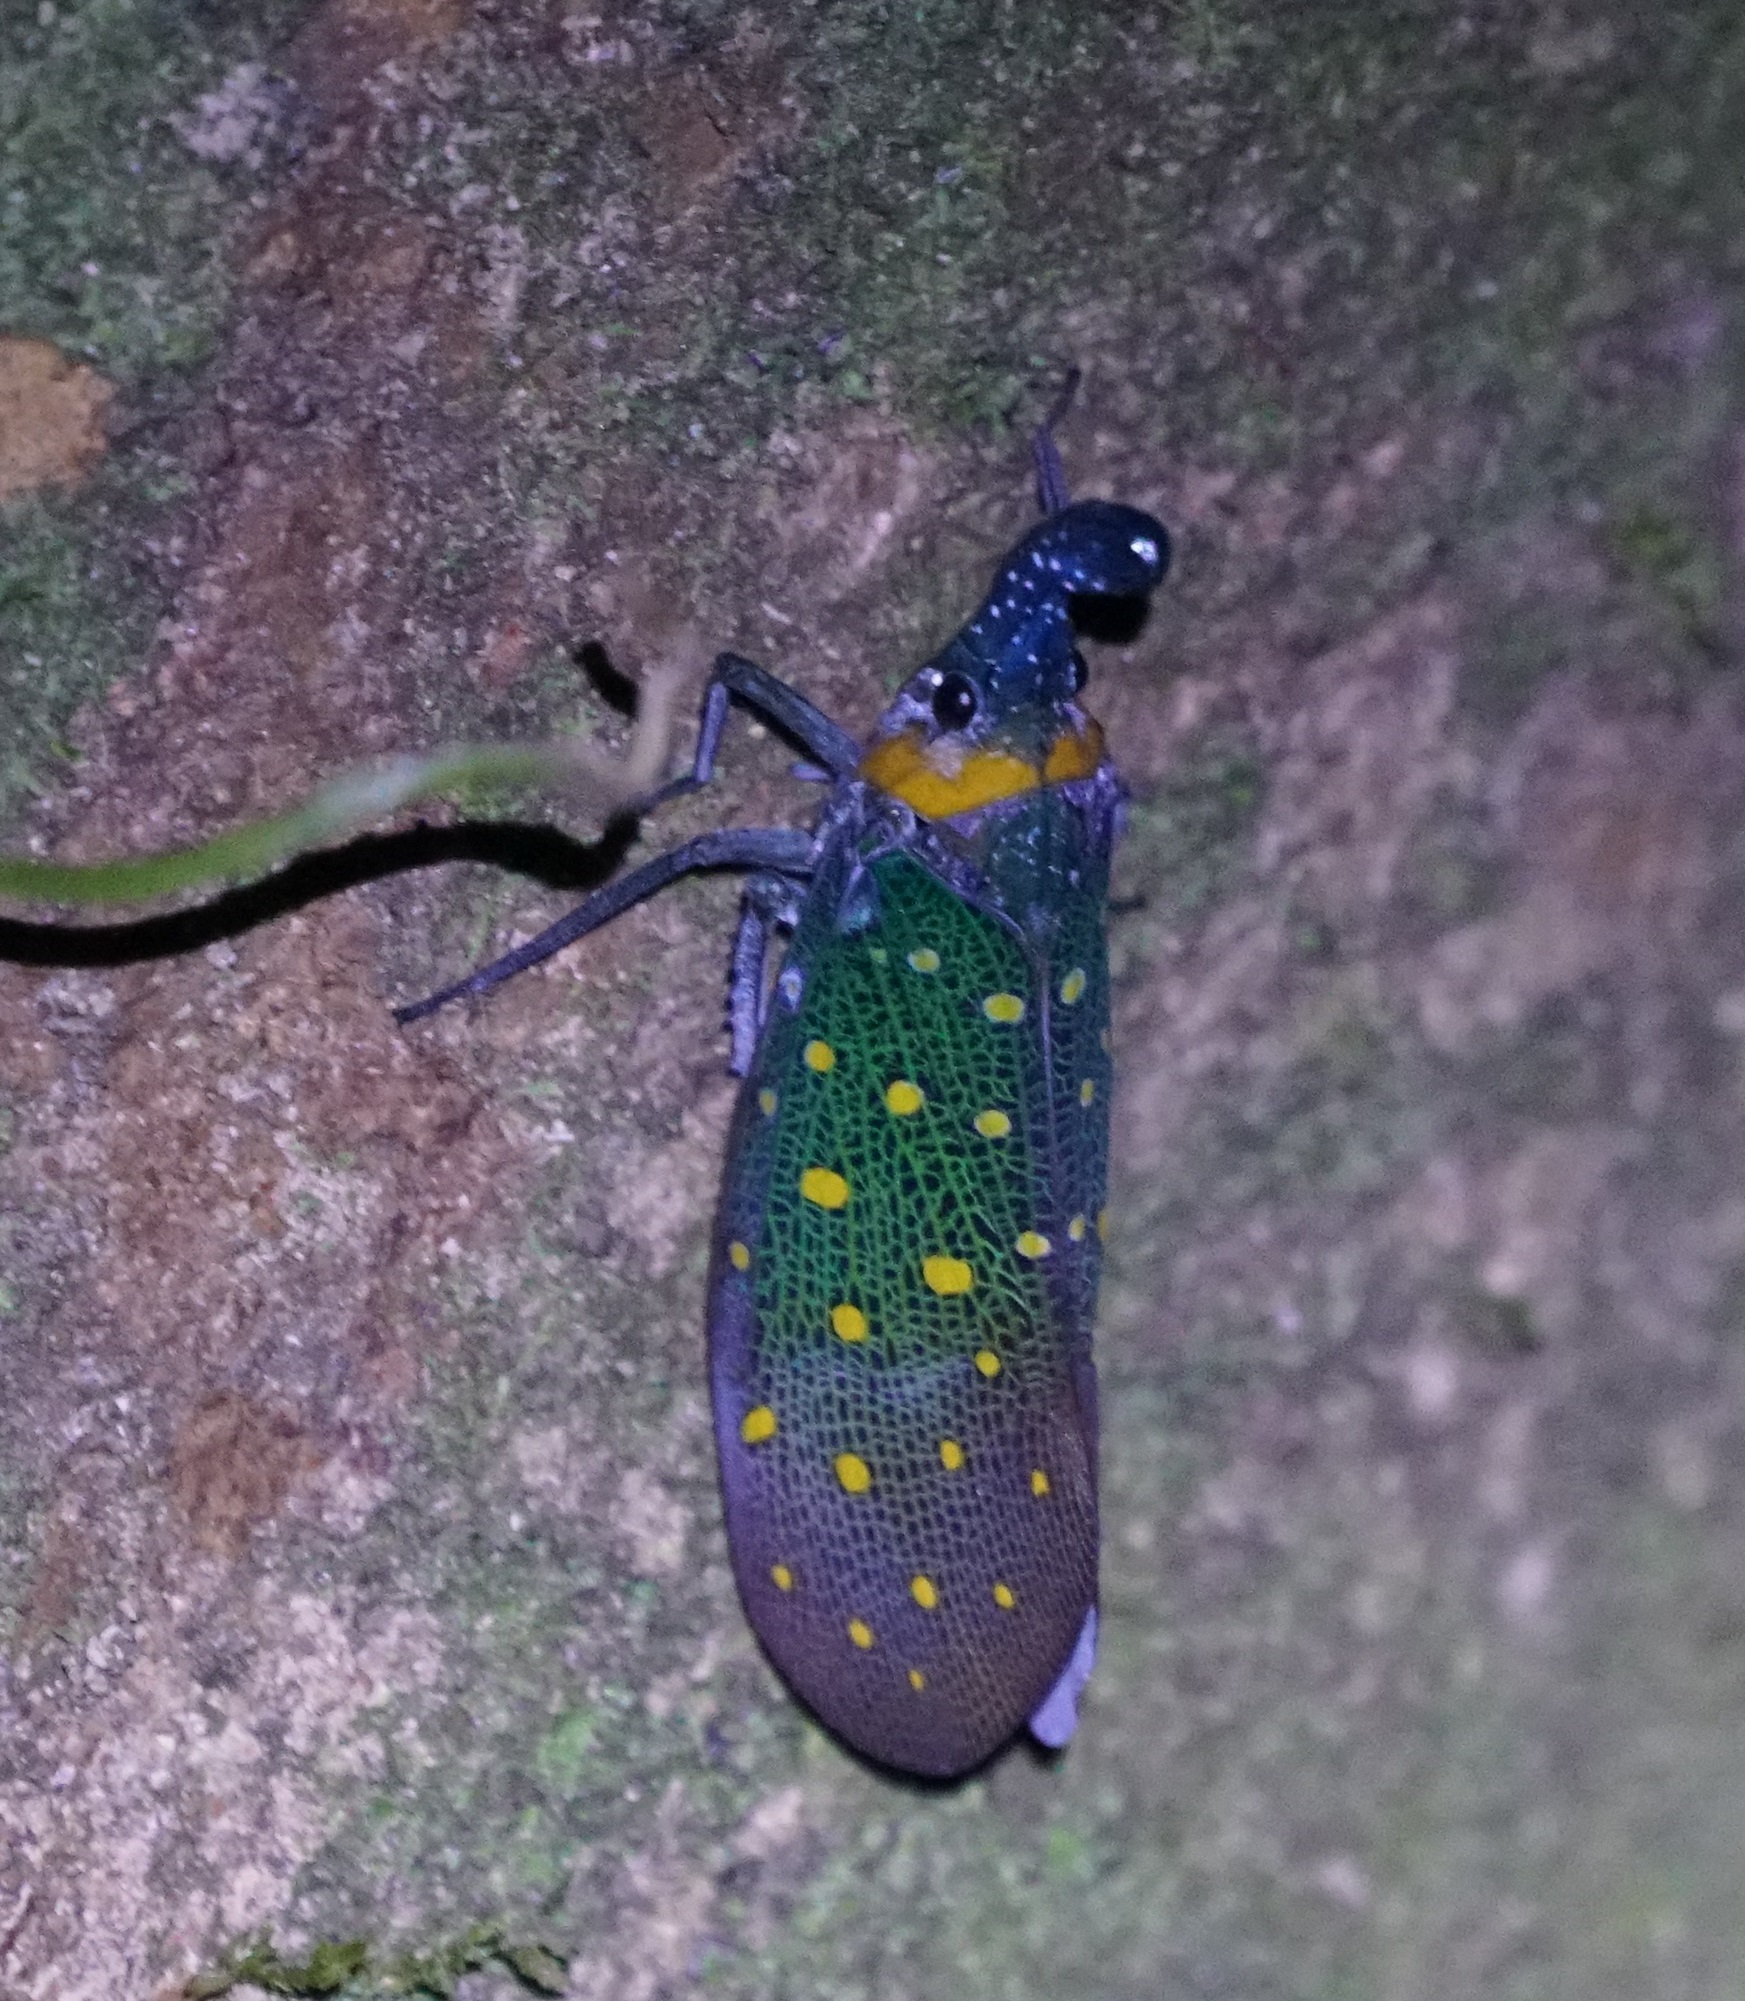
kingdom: Animalia
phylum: Arthropoda
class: Insecta
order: Hemiptera
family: Fulgoridae
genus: Pyrops
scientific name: Pyrops whiteheadi
